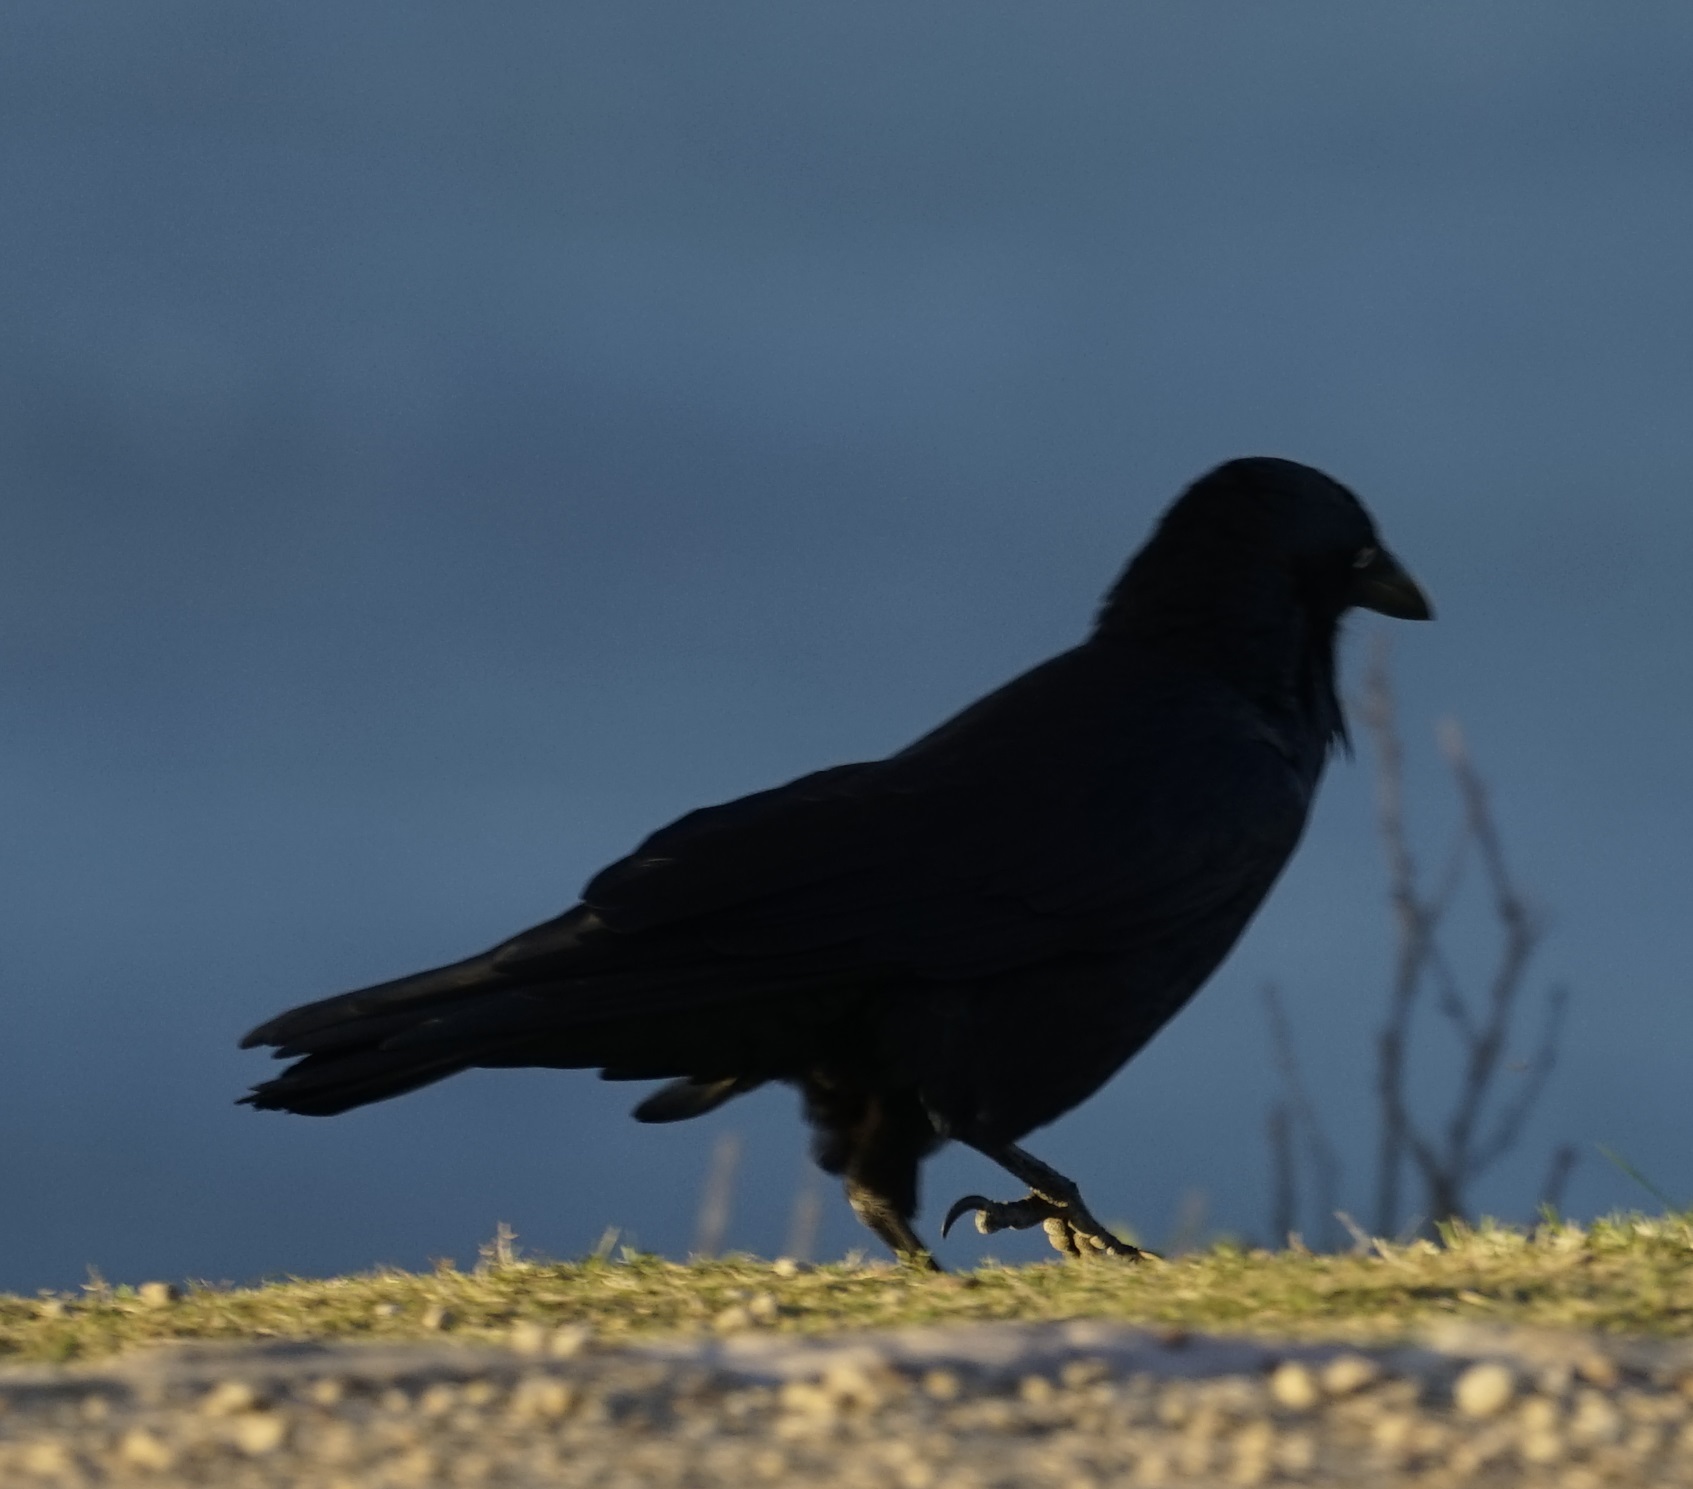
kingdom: Animalia
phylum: Chordata
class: Aves
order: Passeriformes
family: Corvidae
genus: Corvus
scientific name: Corvus coronoides
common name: Australian raven
